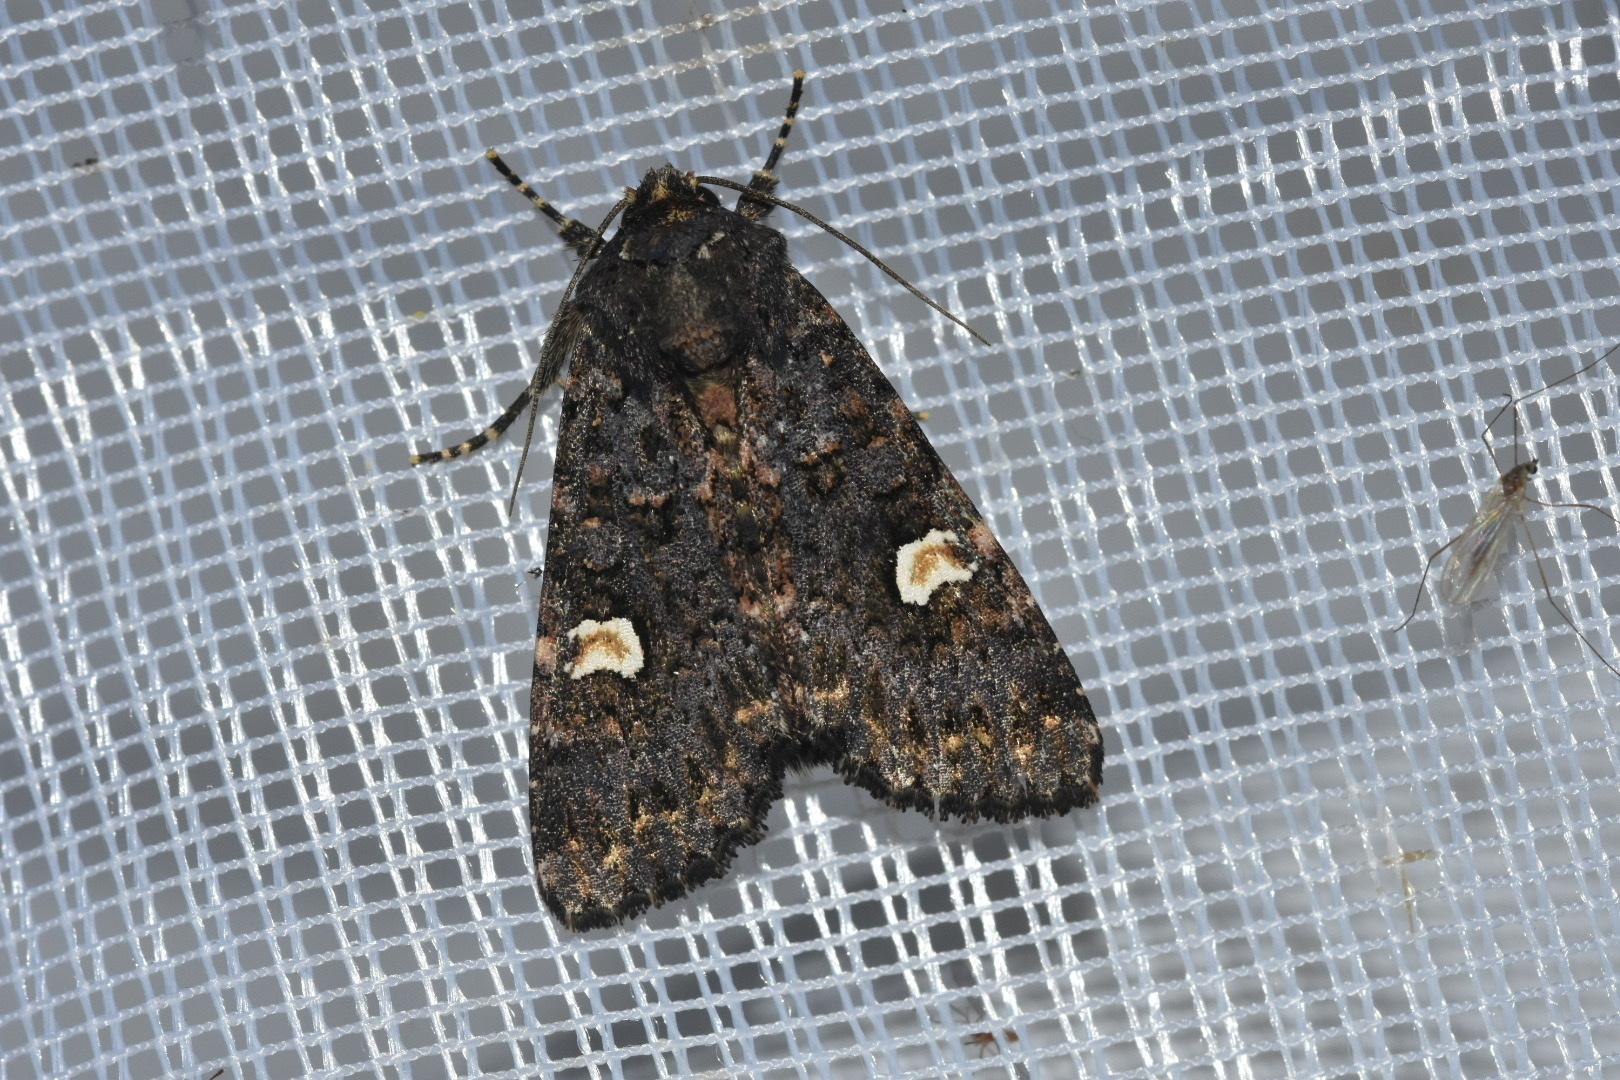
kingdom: Animalia
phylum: Arthropoda
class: Insecta
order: Lepidoptera
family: Noctuidae
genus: Melanchra
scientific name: Melanchra persicariae
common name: Dot moth
